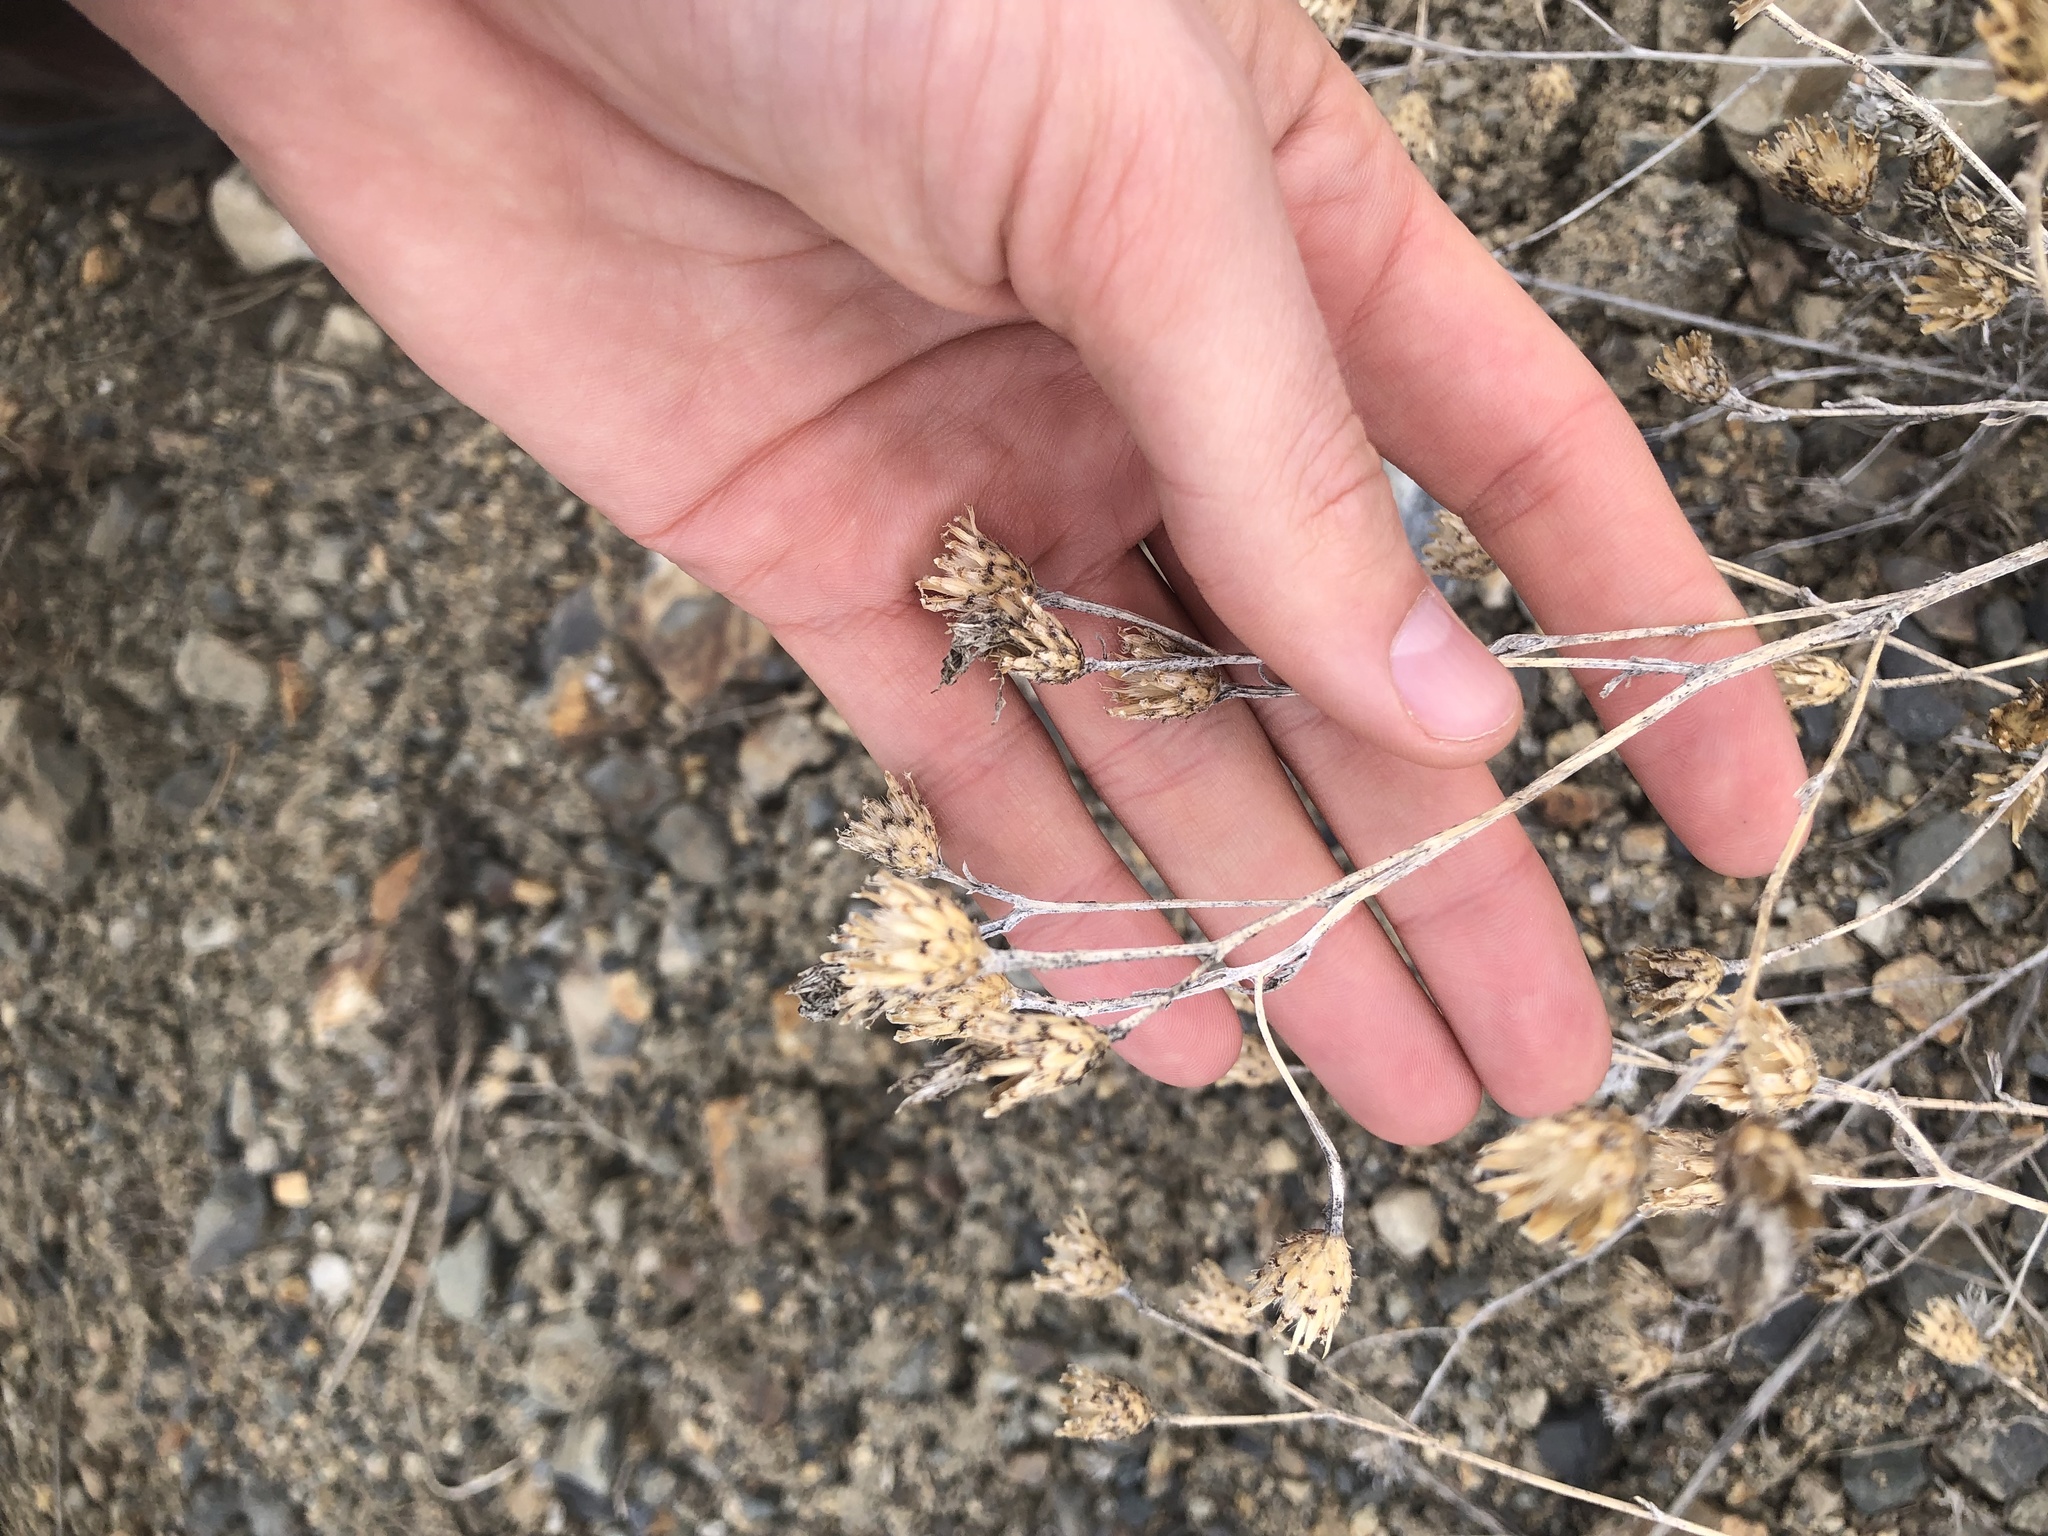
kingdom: Plantae
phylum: Tracheophyta
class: Magnoliopsida
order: Asterales
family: Asteraceae
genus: Centaurea
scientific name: Centaurea stoebe
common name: Spotted knapweed
